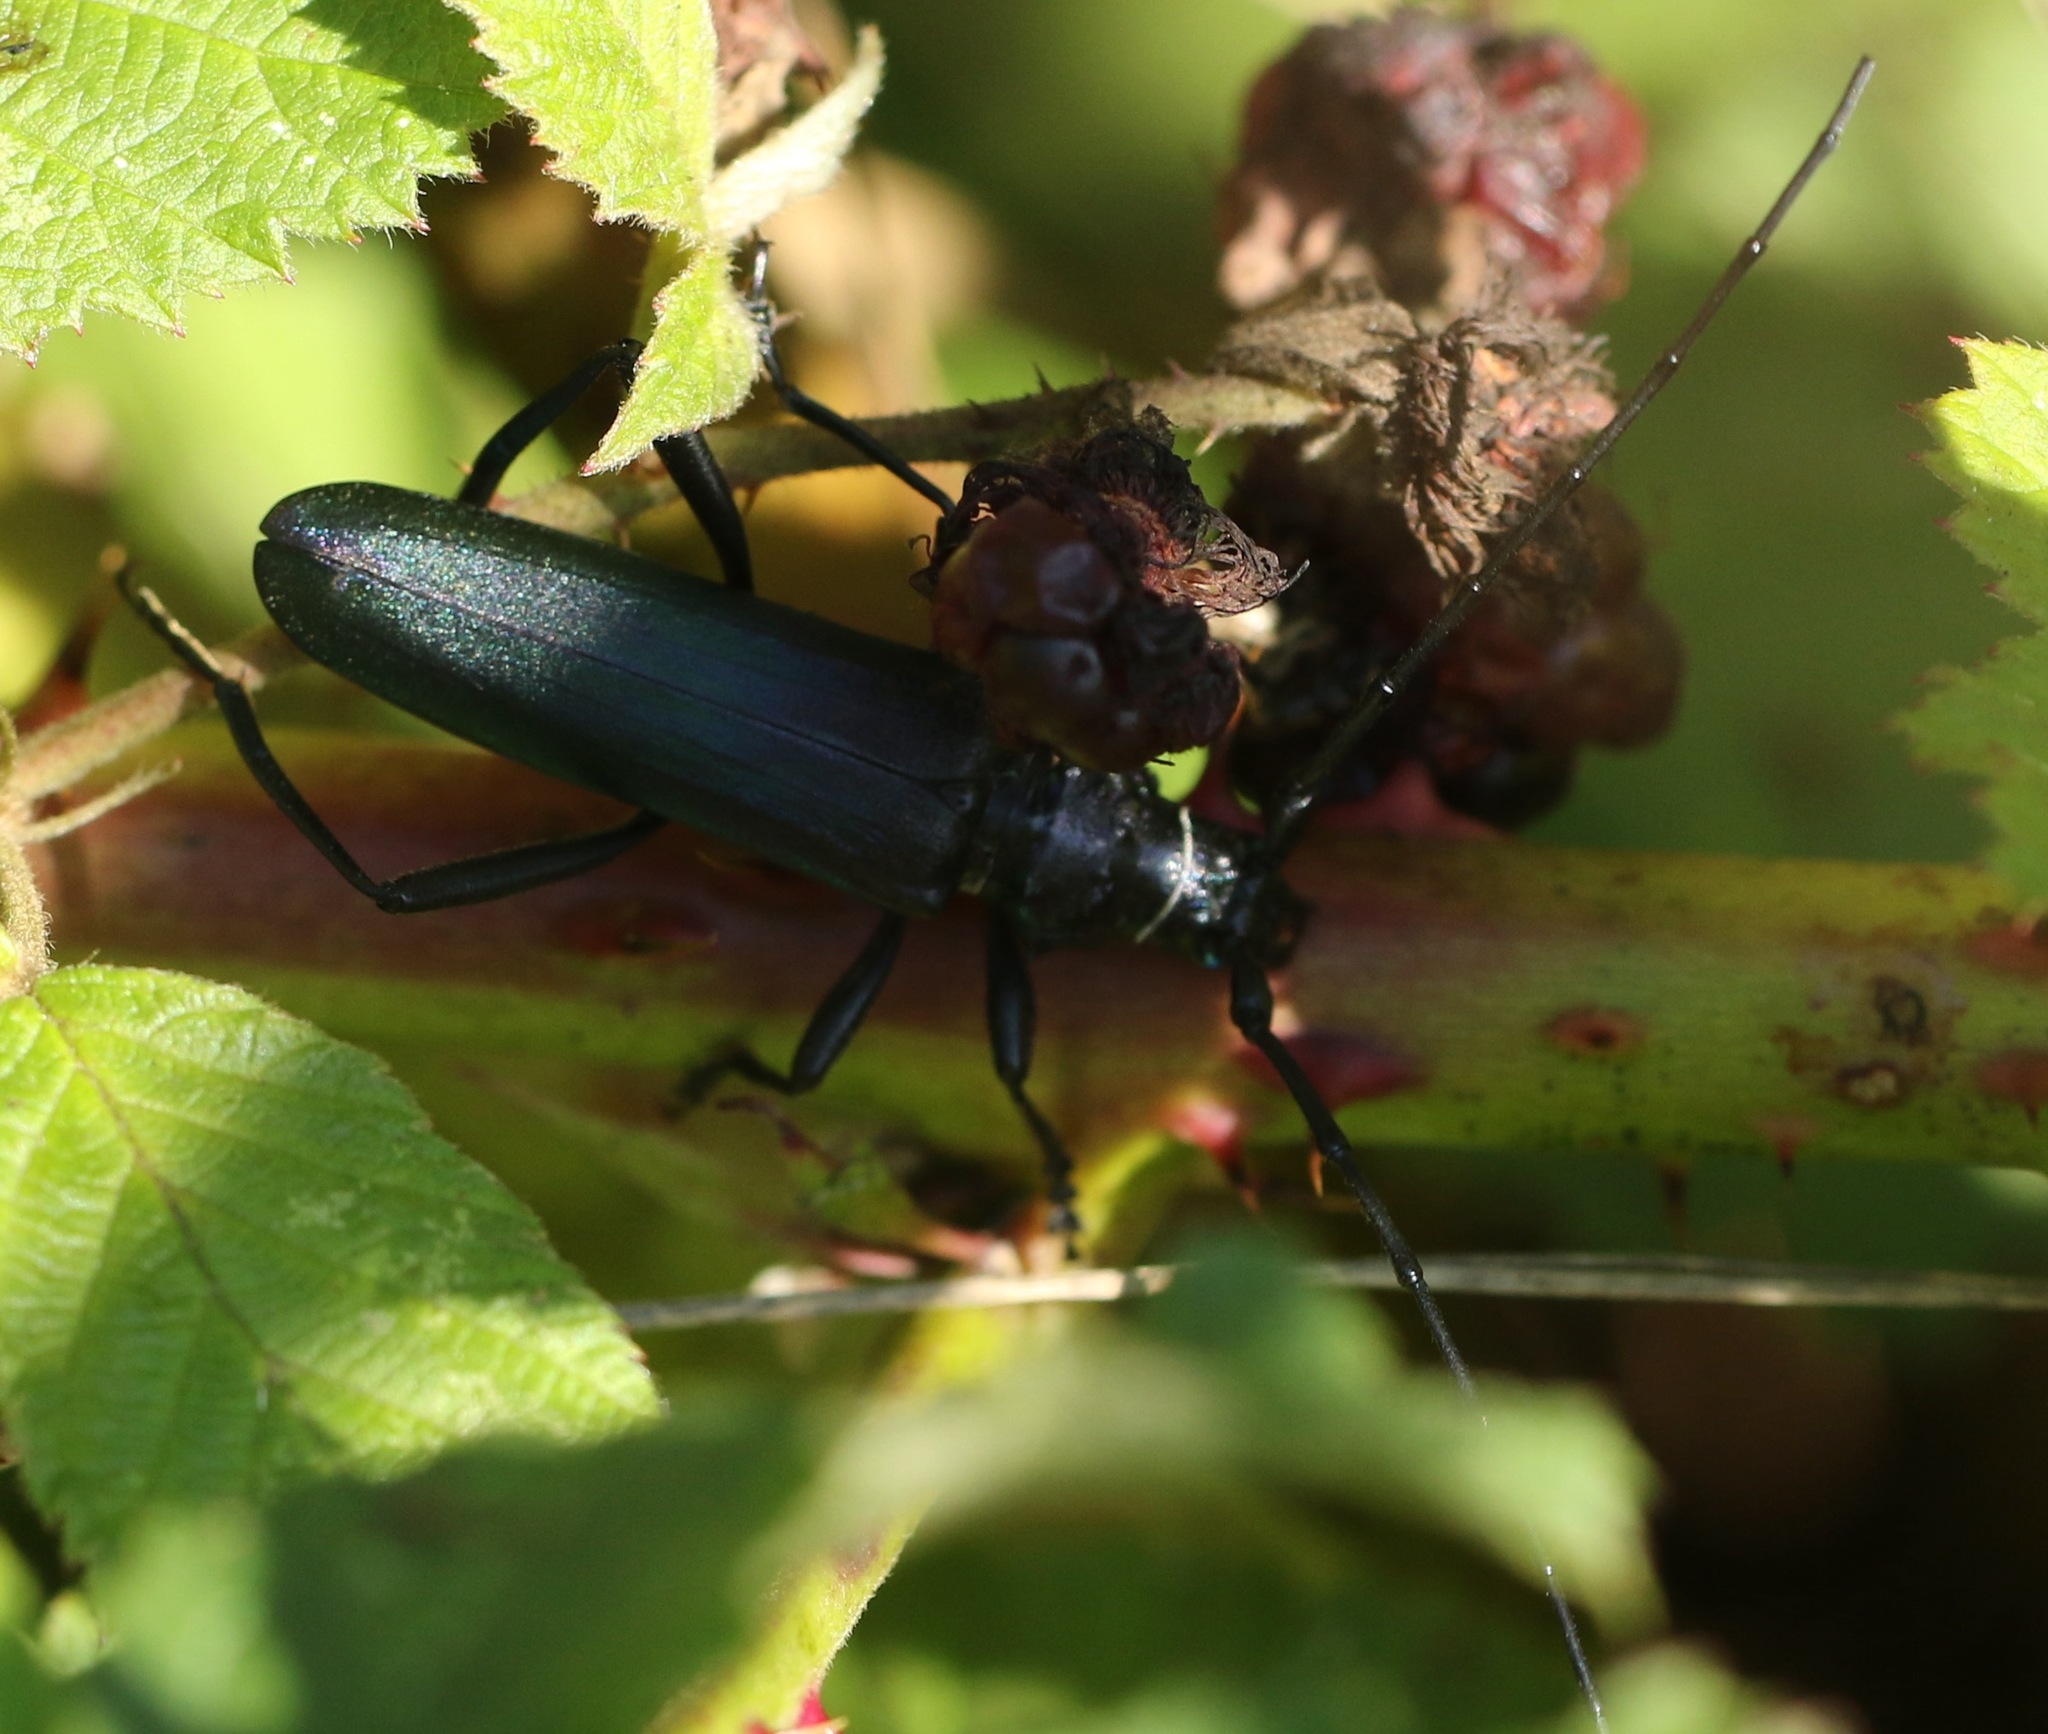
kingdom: Animalia
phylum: Arthropoda
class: Insecta
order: Coleoptera
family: Cerambycidae
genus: Aromia
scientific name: Aromia moschata
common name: Musk beetle
